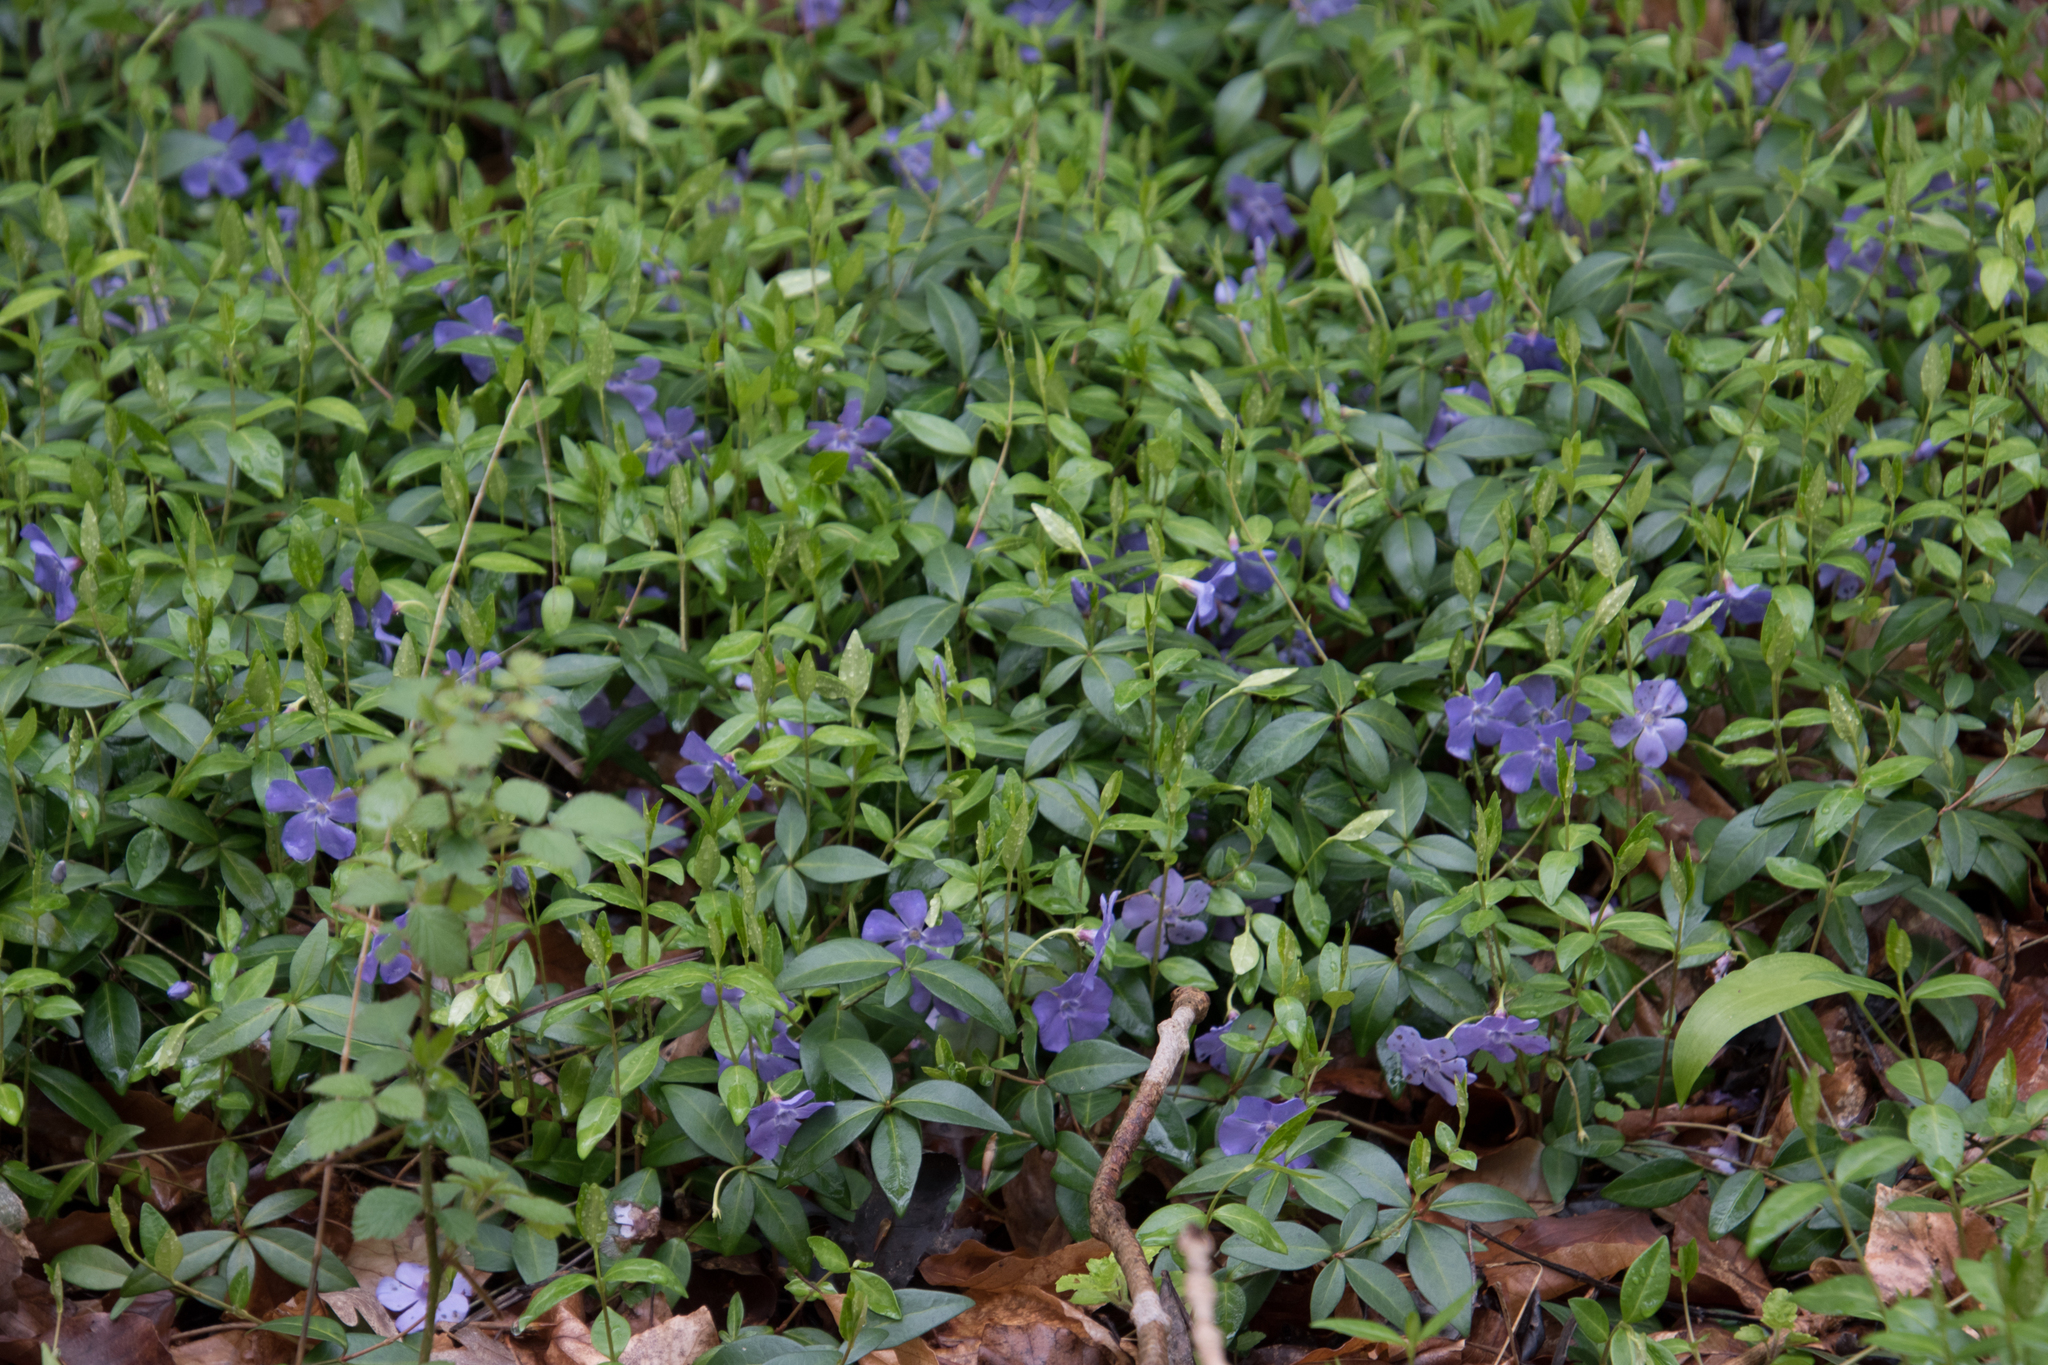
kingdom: Plantae
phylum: Tracheophyta
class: Magnoliopsida
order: Gentianales
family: Apocynaceae
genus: Vinca
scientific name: Vinca minor
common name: Lesser periwinkle
